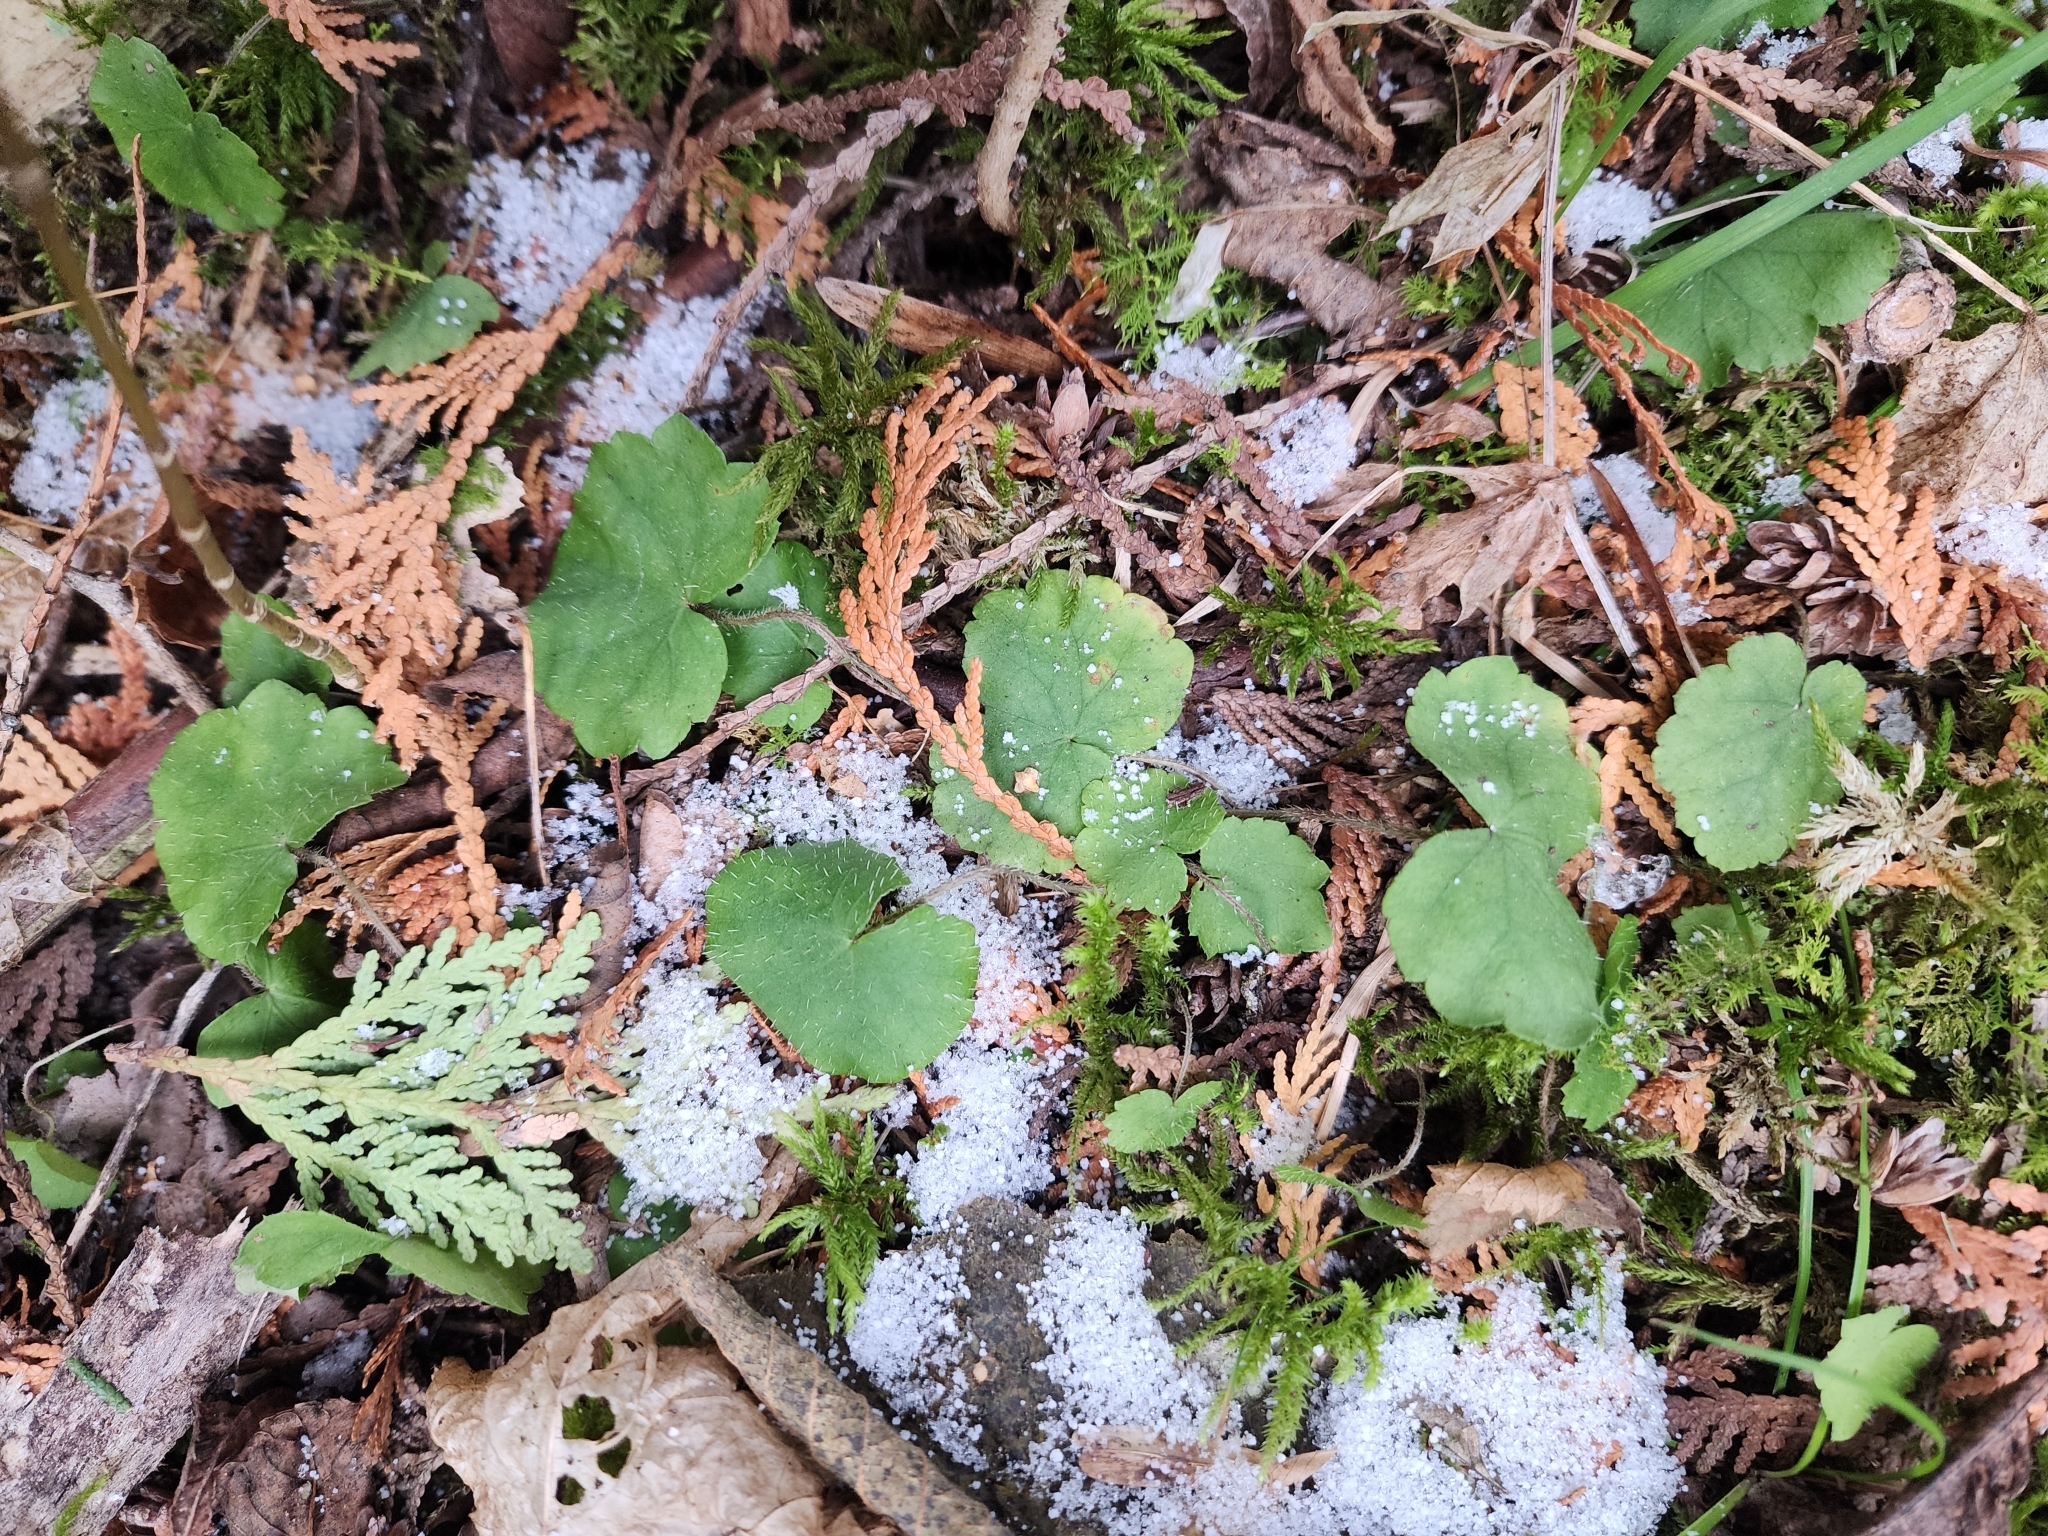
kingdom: Plantae
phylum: Tracheophyta
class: Magnoliopsida
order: Saxifragales
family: Saxifragaceae
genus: Mitella
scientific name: Mitella nuda
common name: Bare-stemmed bishop's-cap
